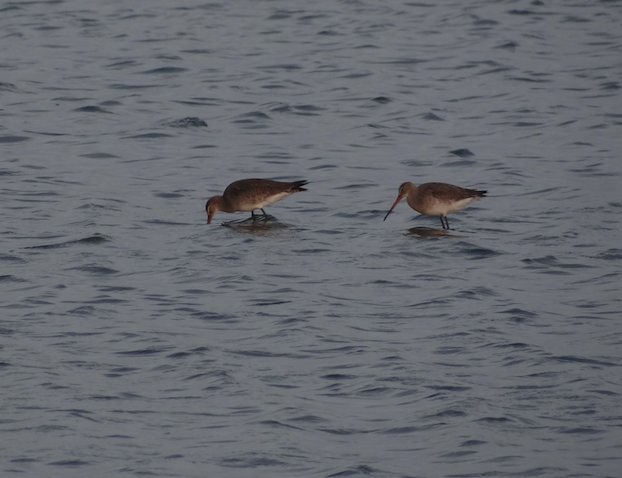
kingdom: Animalia
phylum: Chordata
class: Aves
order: Charadriiformes
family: Scolopacidae
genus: Limosa
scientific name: Limosa limosa
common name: Black-tailed godwit
